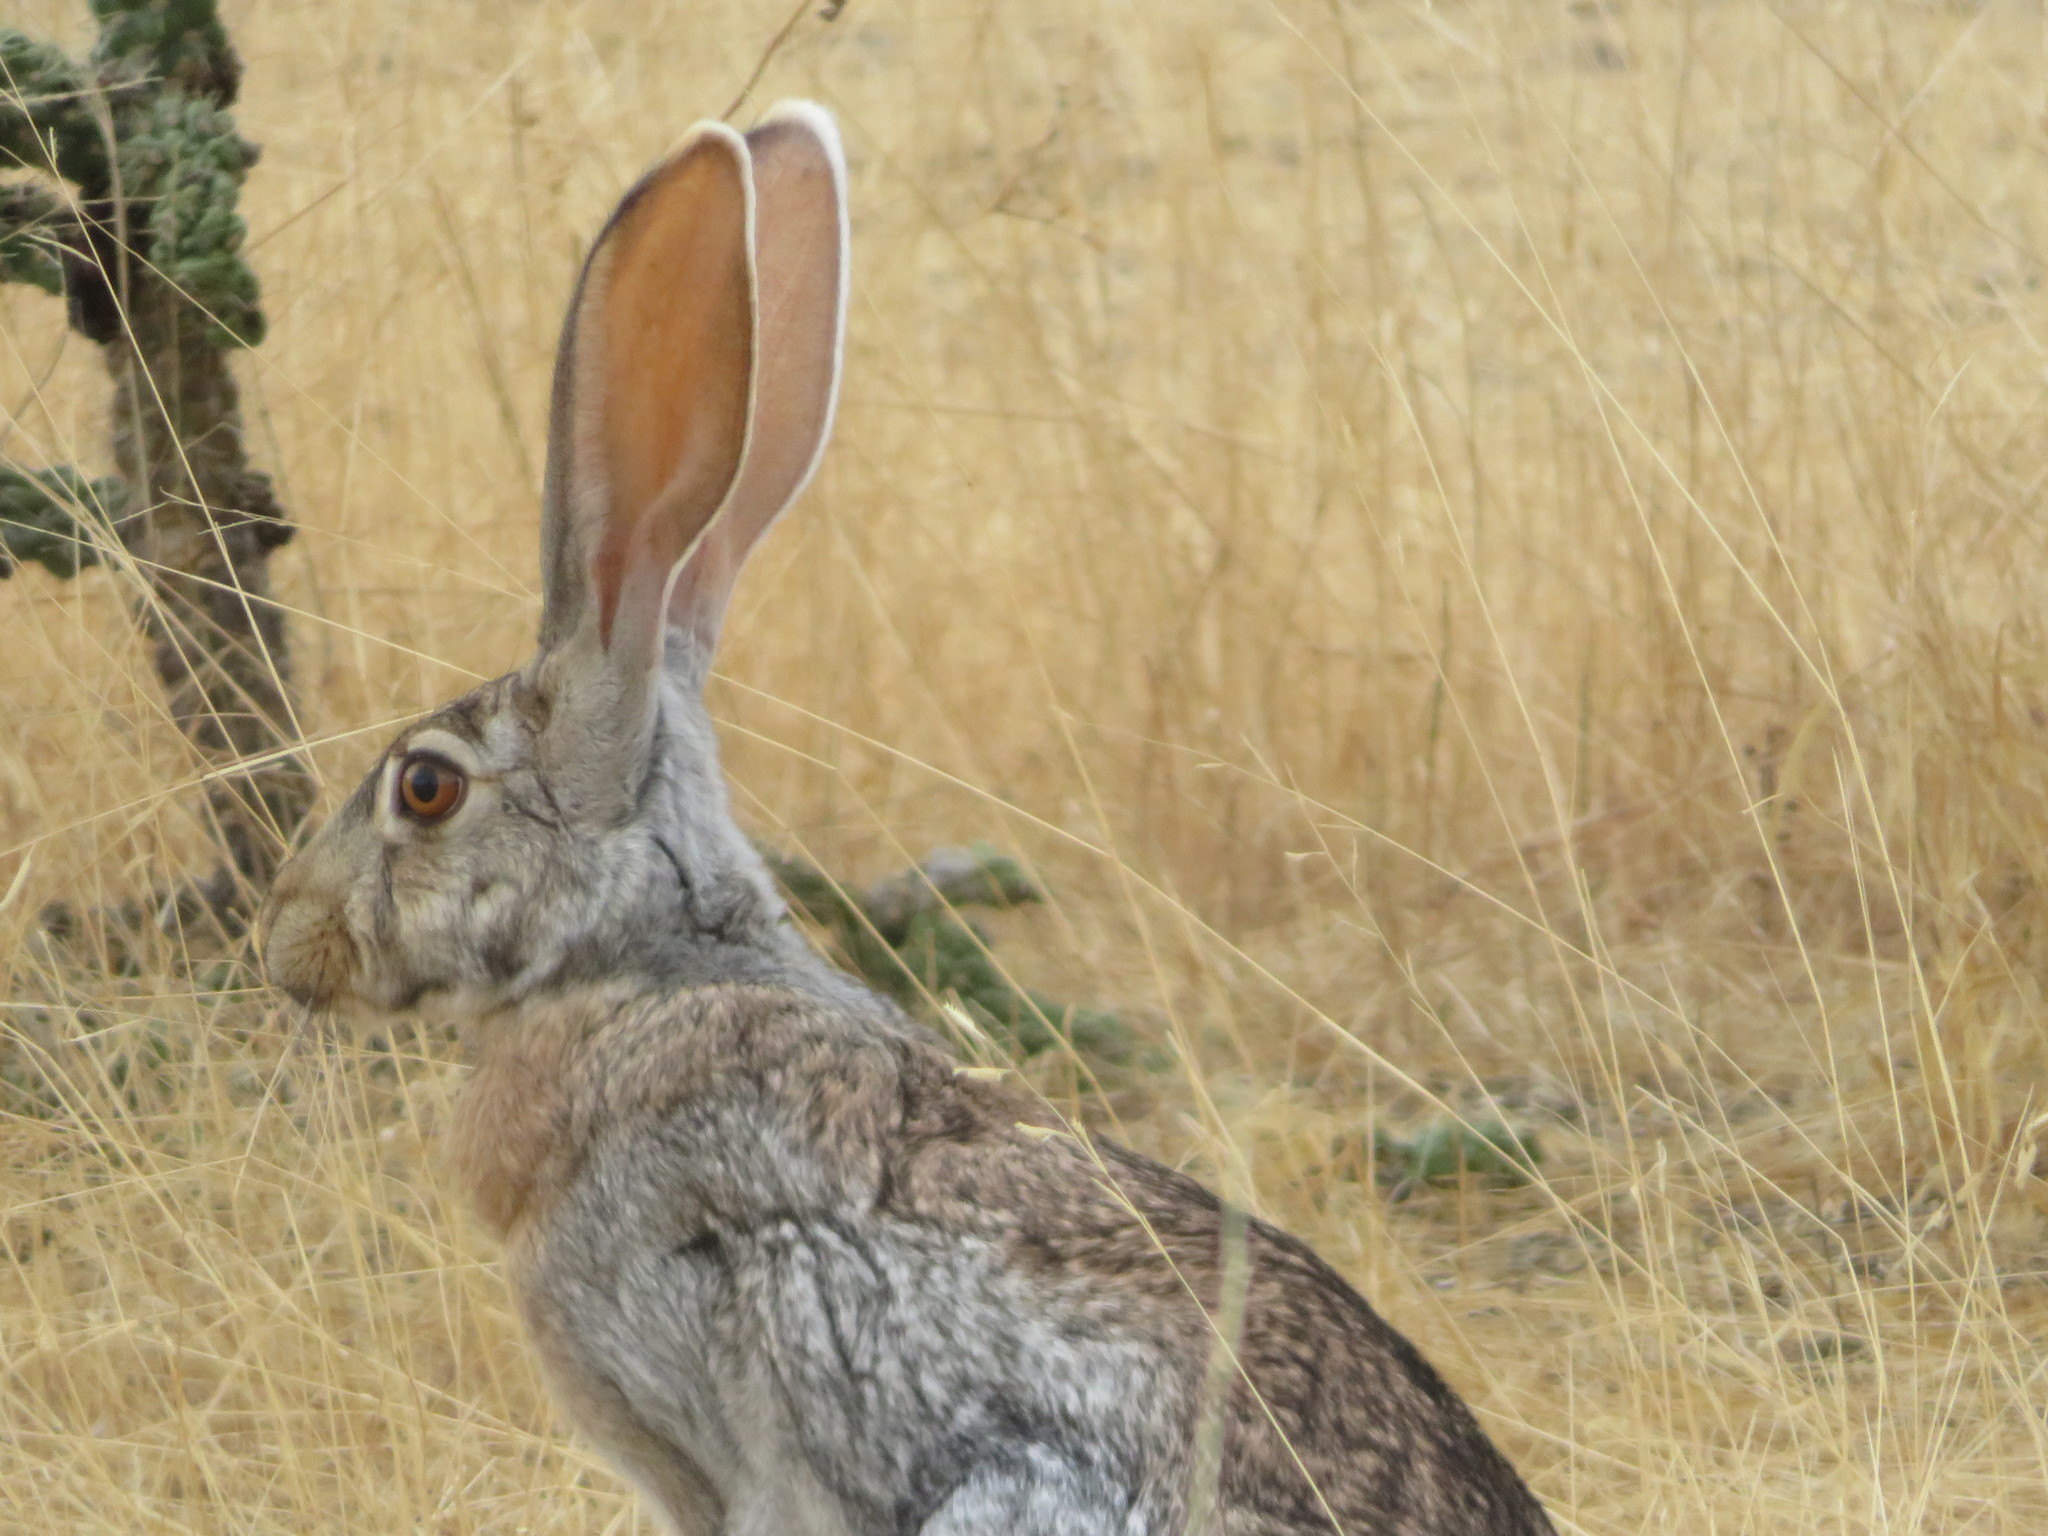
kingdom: Animalia
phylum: Chordata
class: Mammalia
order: Lagomorpha
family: Leporidae
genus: Lepus
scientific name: Lepus alleni
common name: Antelope jackrabbit
